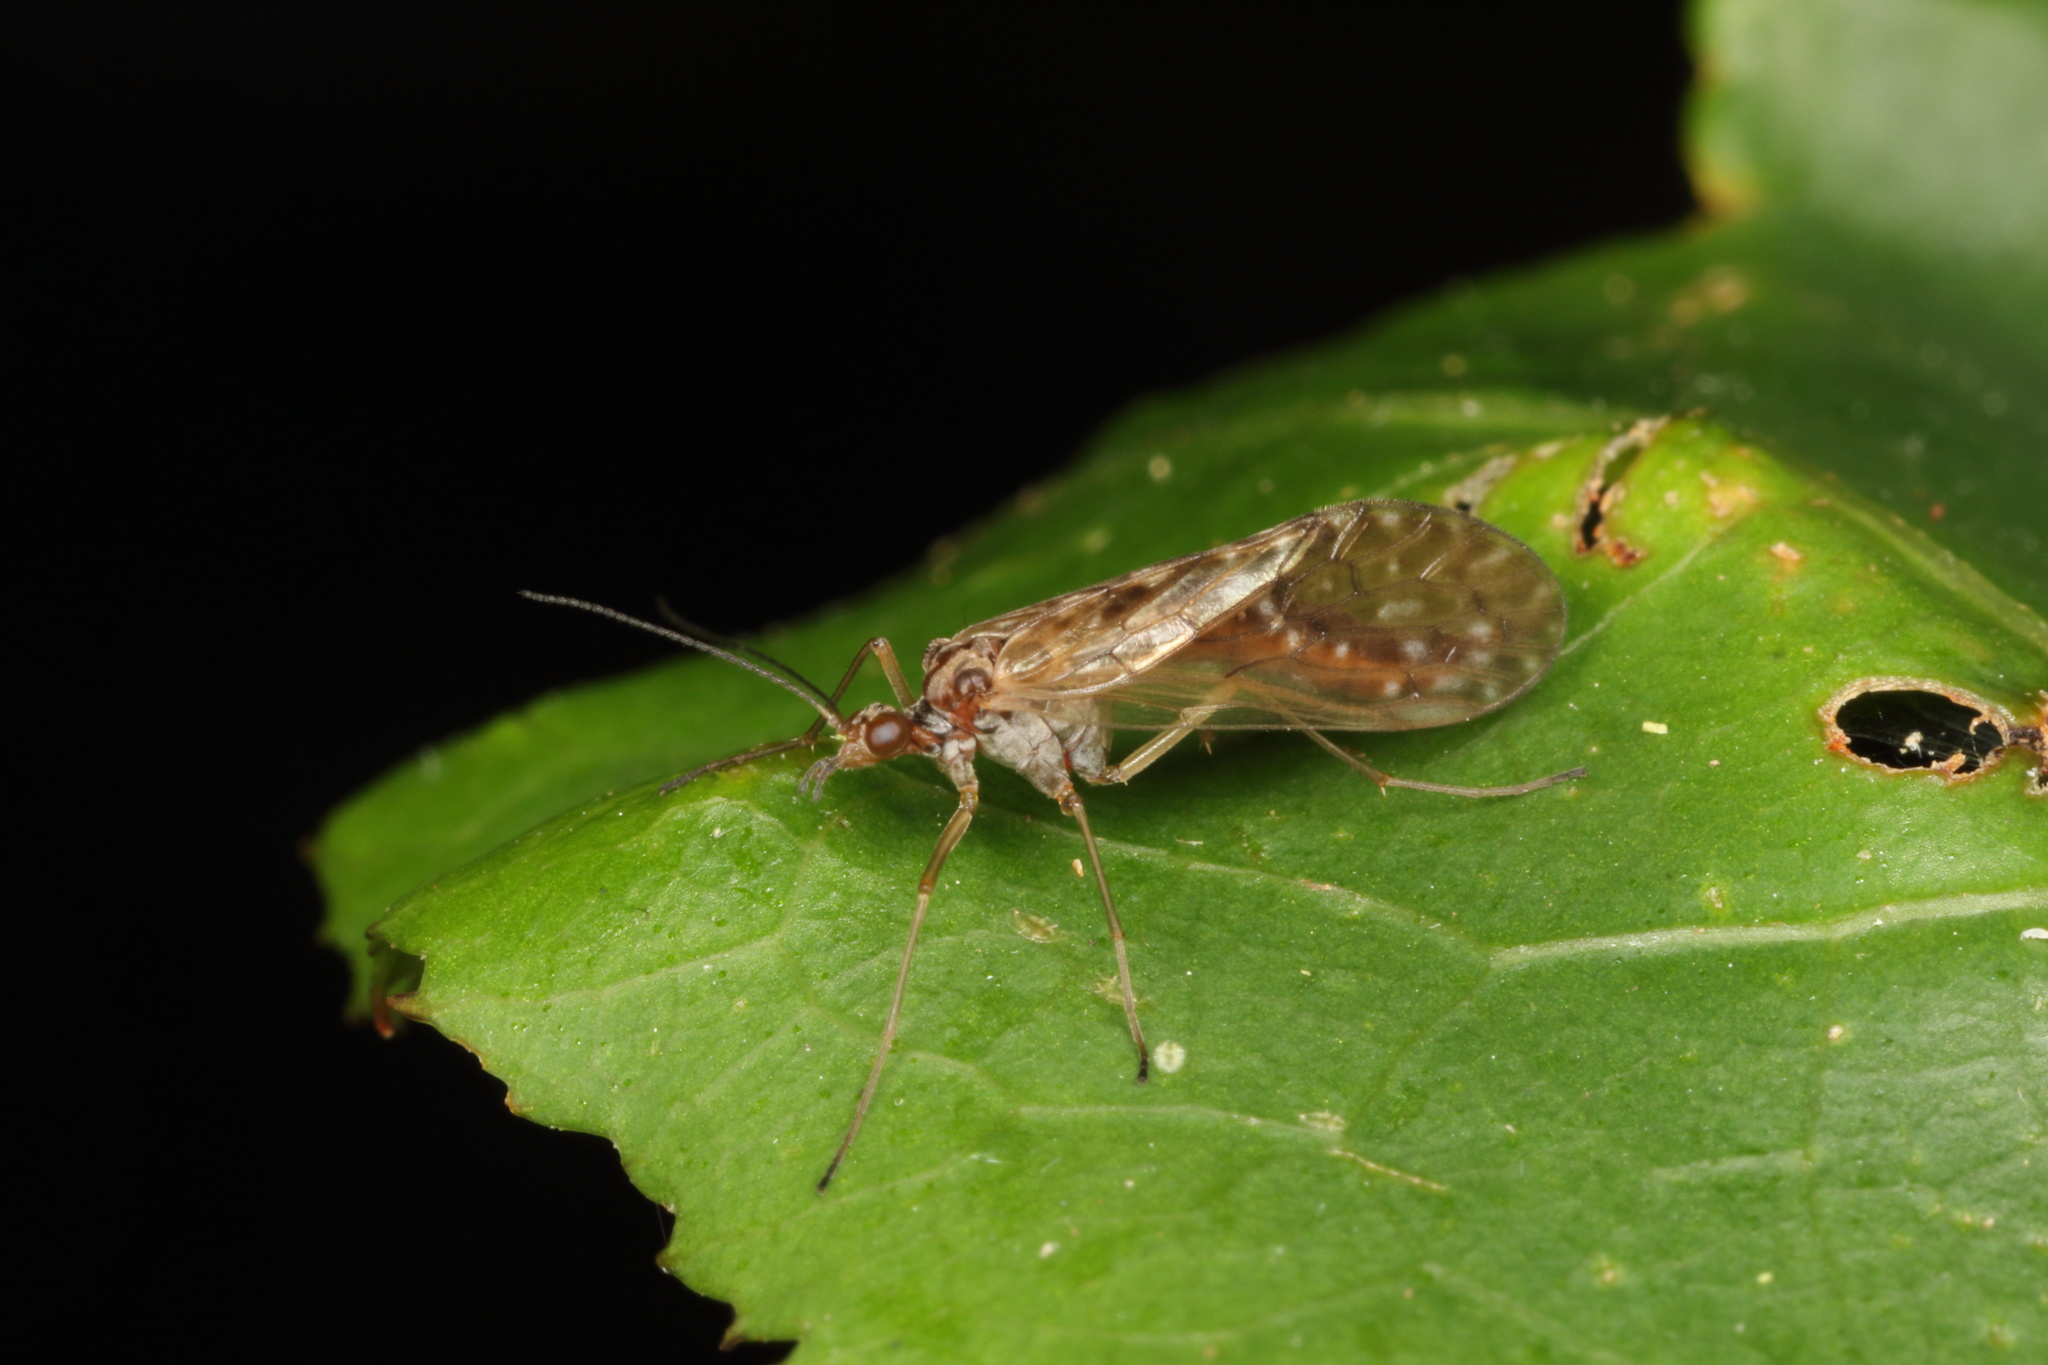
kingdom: Animalia
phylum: Arthropoda
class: Insecta
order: Mecoptera
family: Nannochoristidae
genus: Nannochorista
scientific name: Nannochorista philpotti
